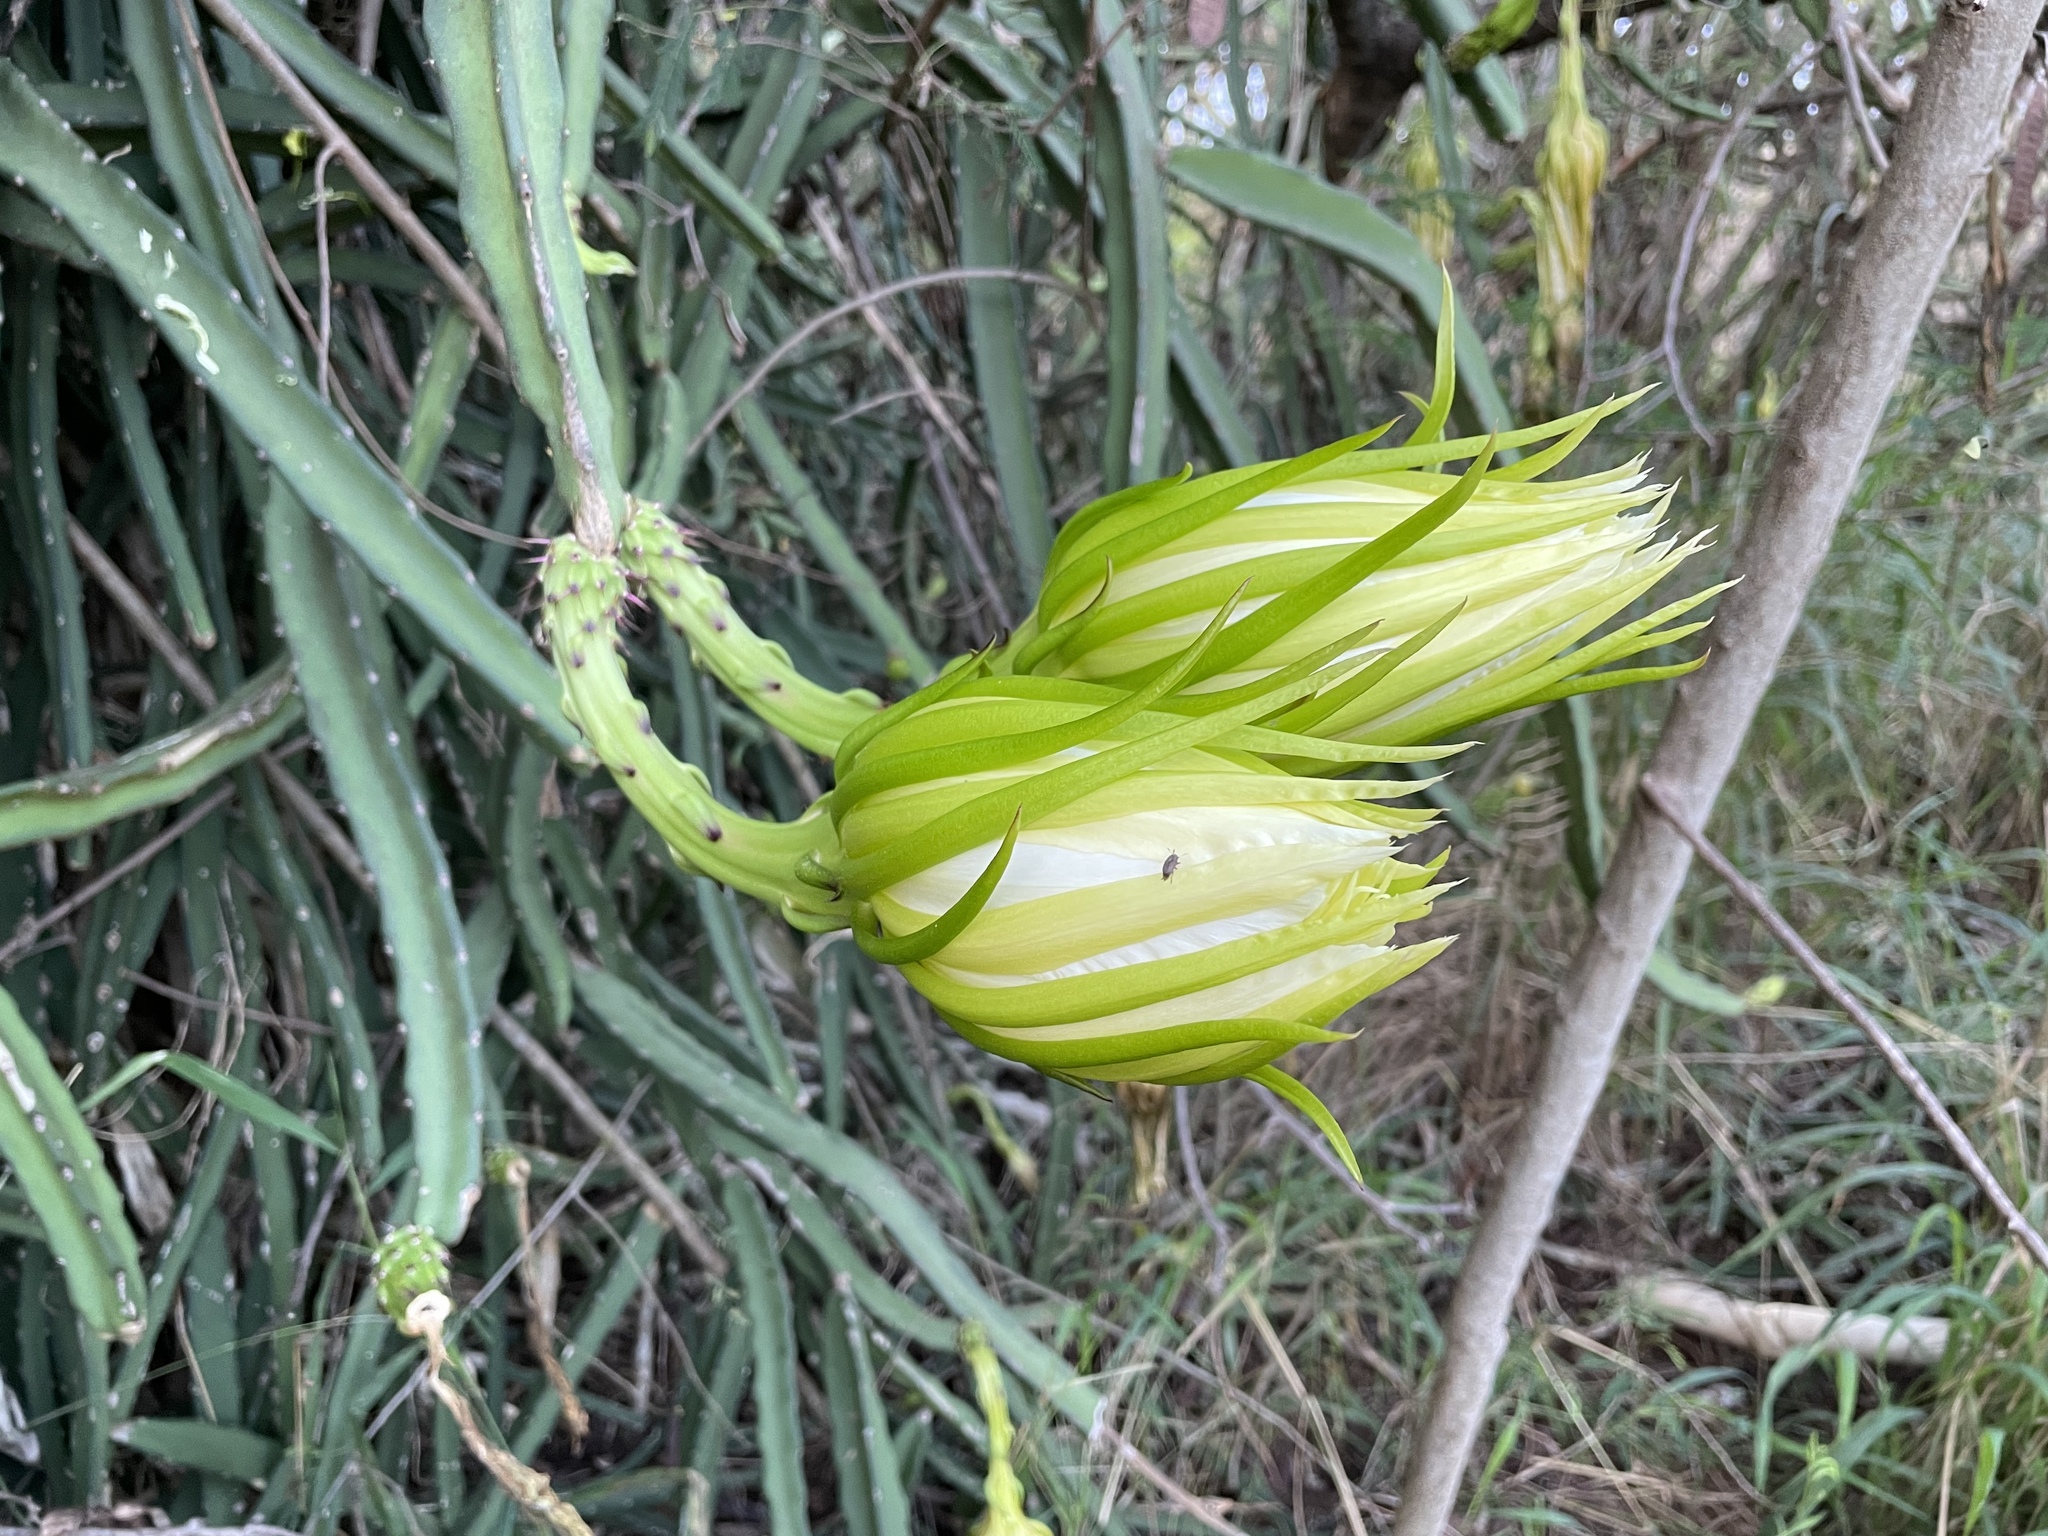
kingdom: Plantae
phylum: Tracheophyta
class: Magnoliopsida
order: Caryophyllales
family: Cactaceae
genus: Selenicereus
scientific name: Selenicereus undatus
